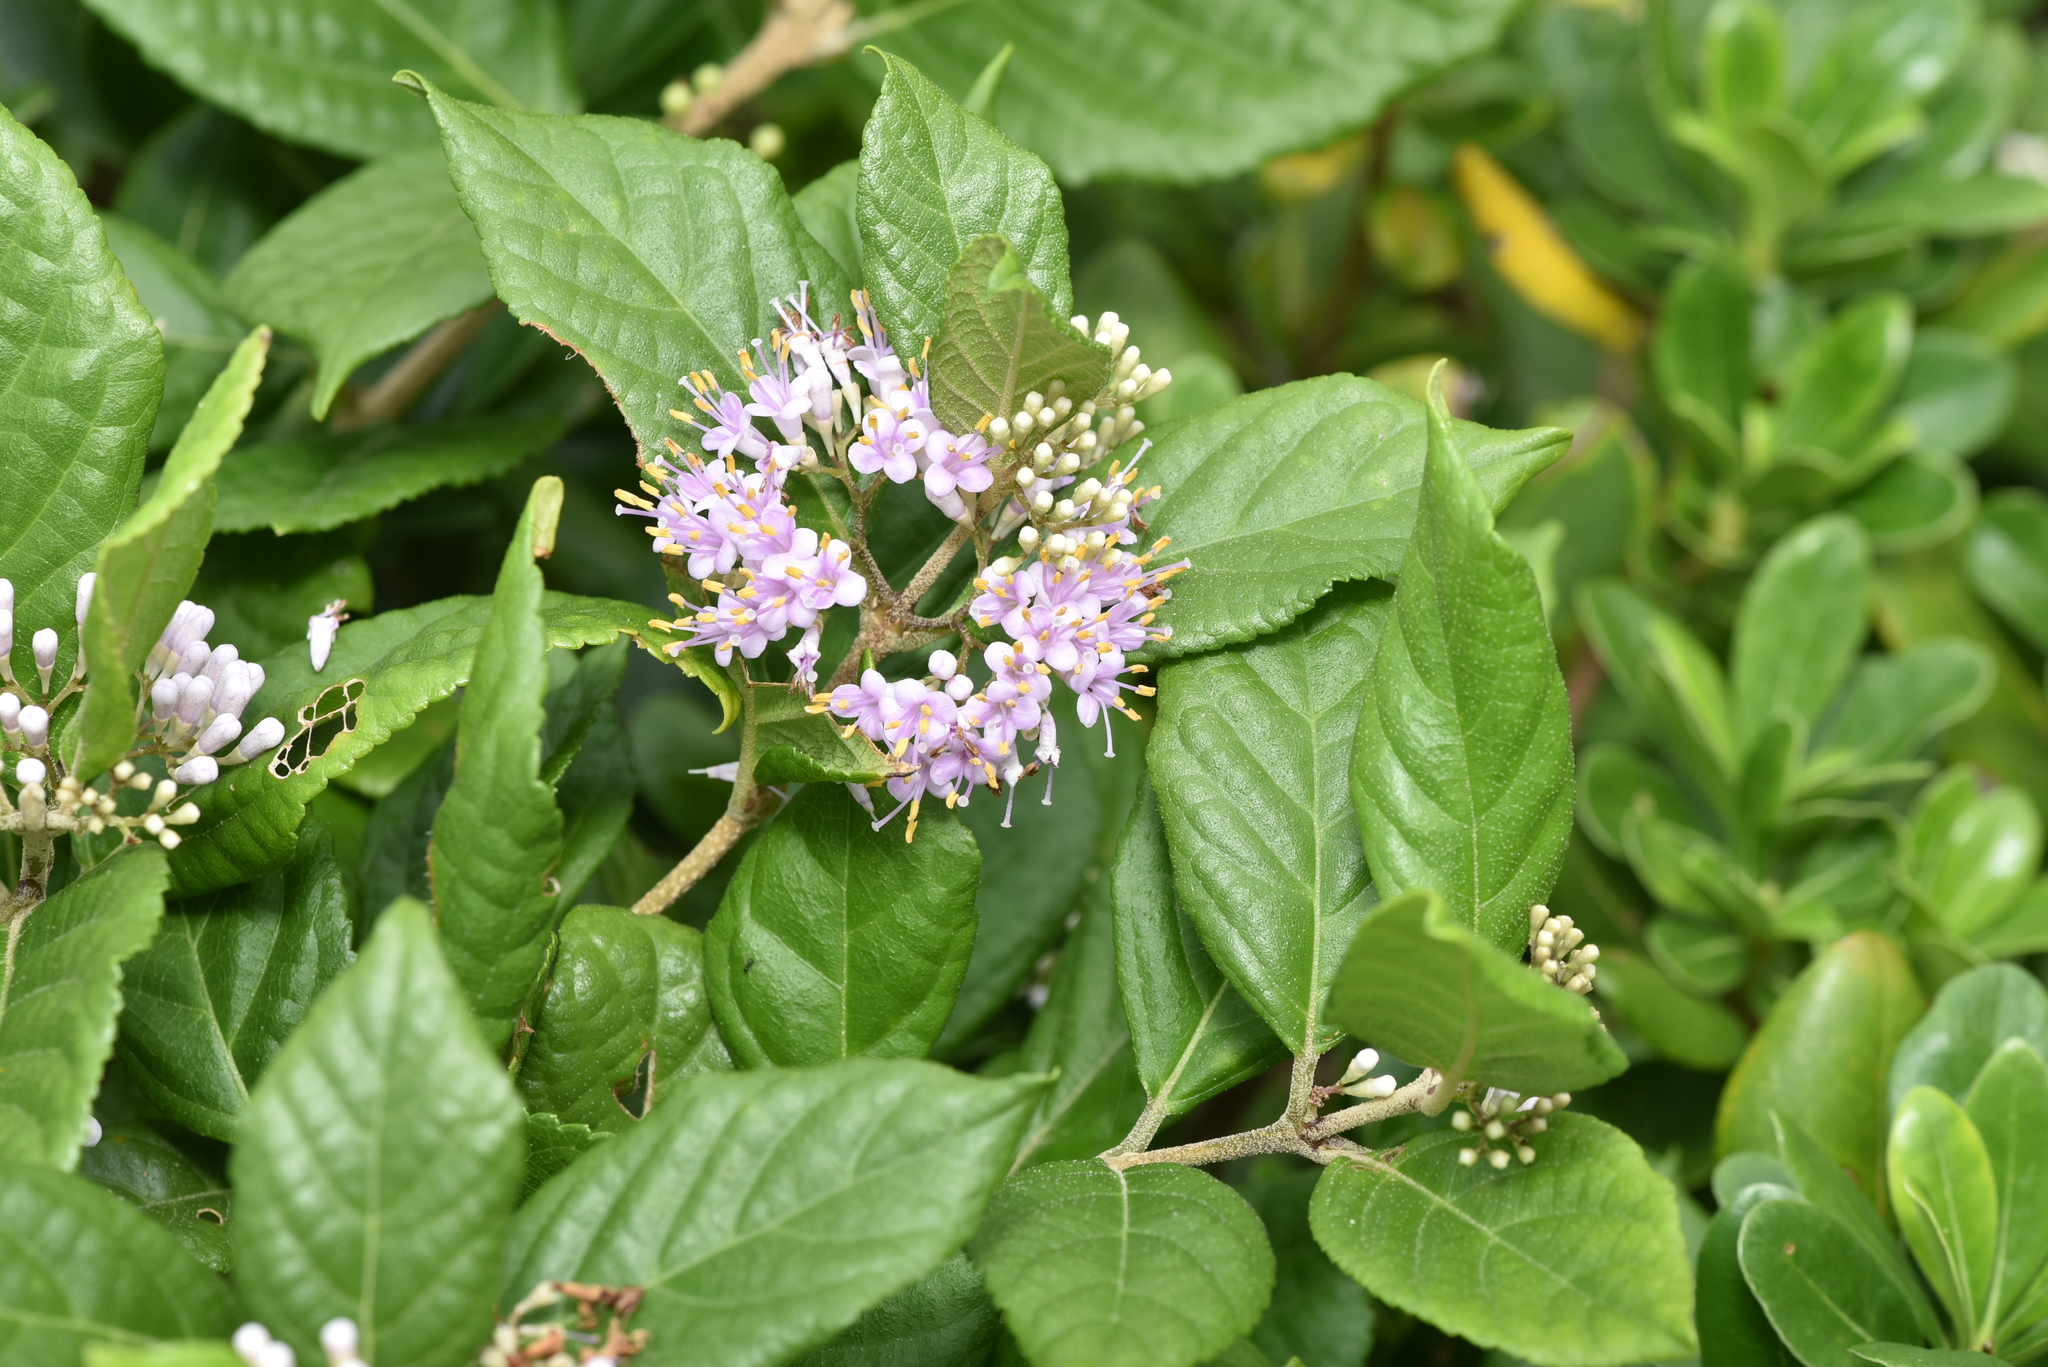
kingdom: Plantae
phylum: Tracheophyta
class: Magnoliopsida
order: Lamiales
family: Lamiaceae
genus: Callicarpa
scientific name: Callicarpa japonica
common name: Japanese beauty-berry
